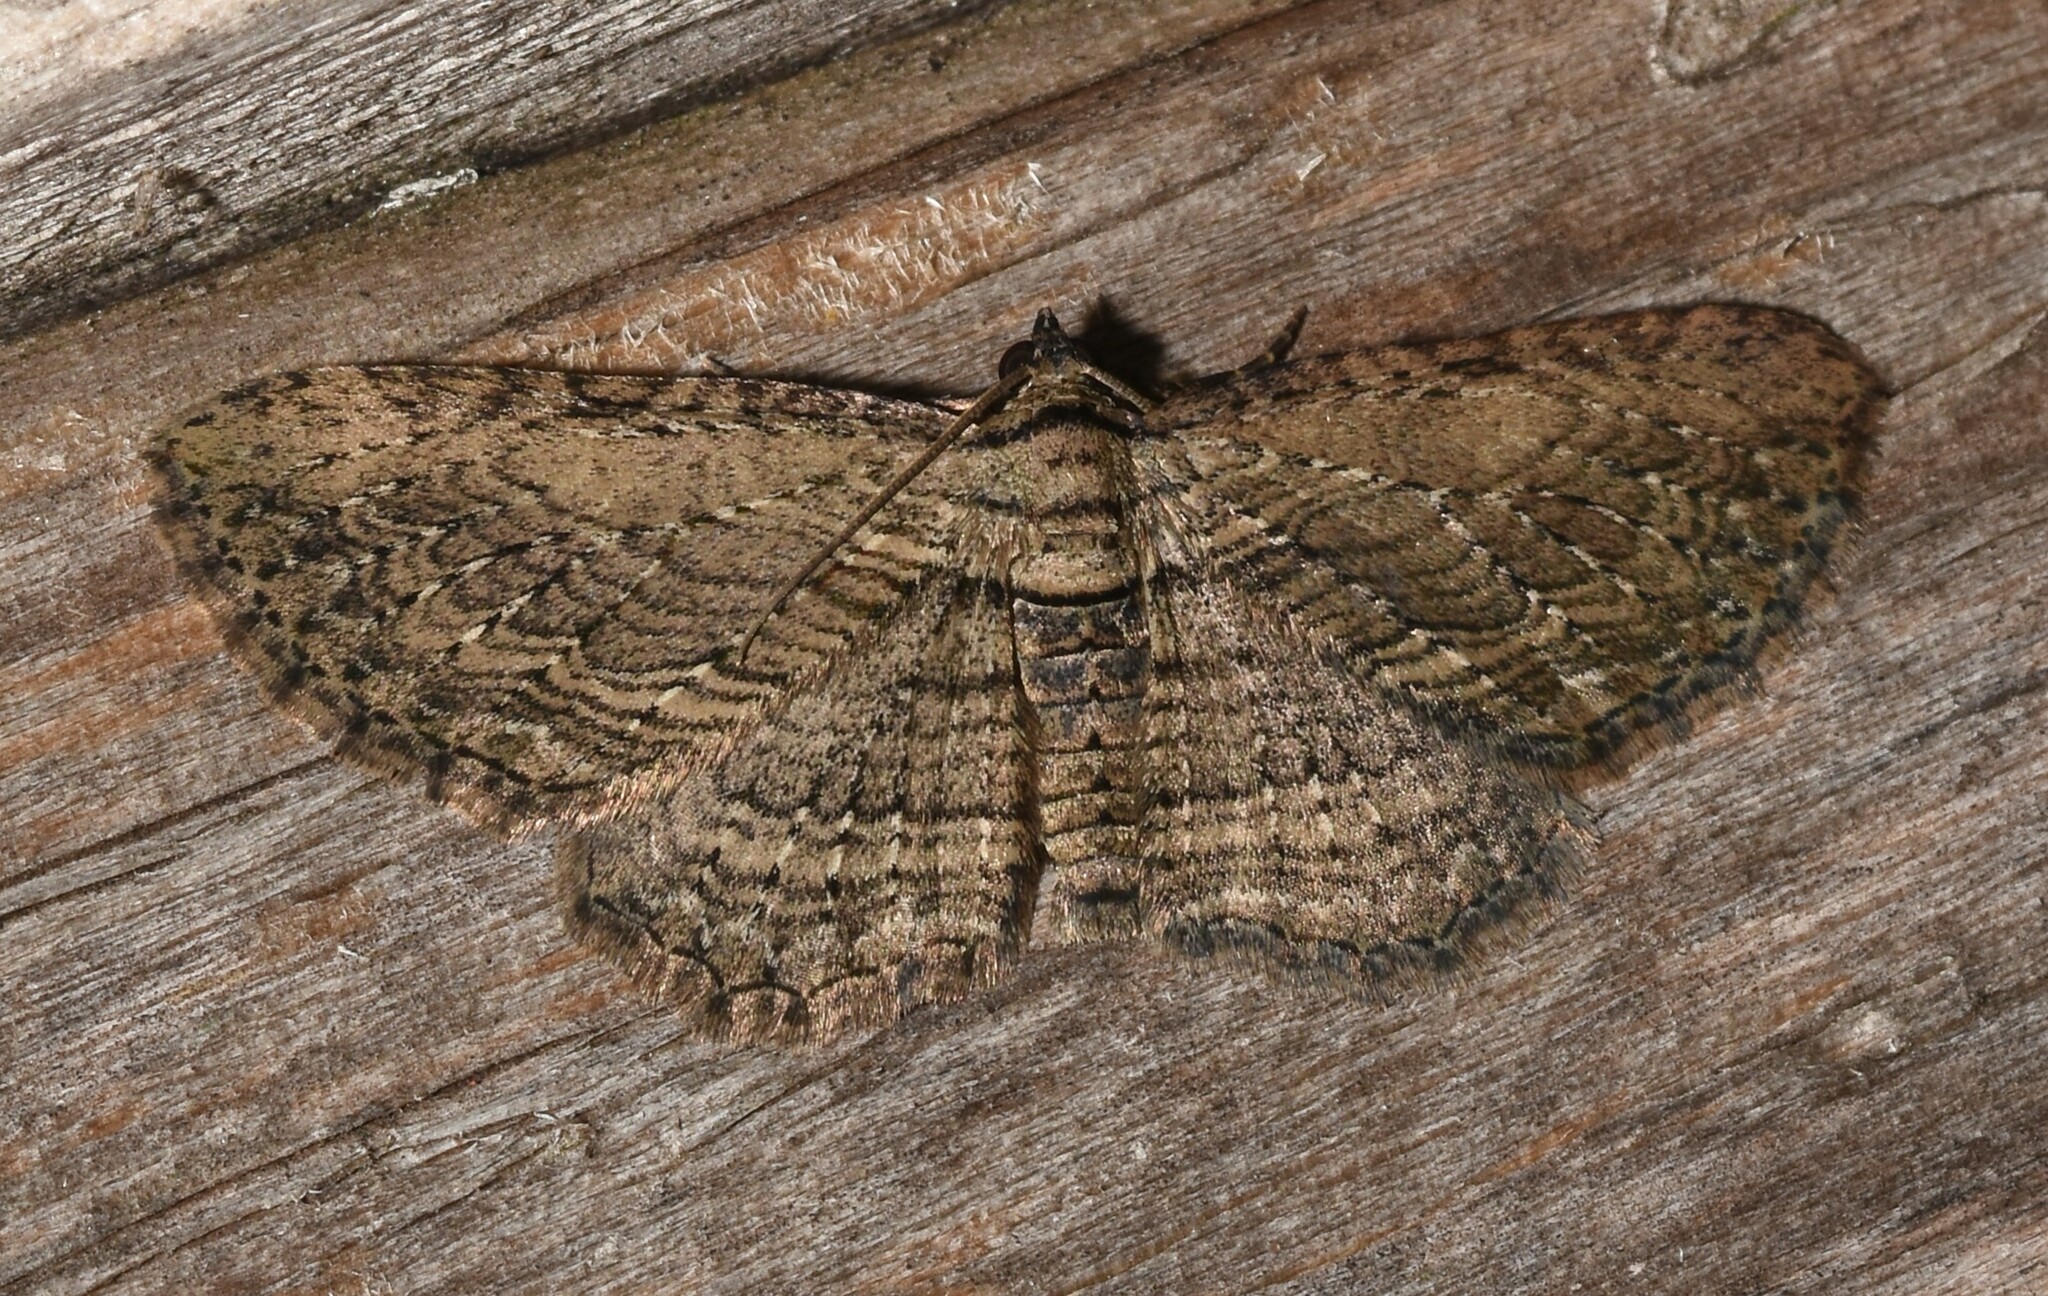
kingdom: Animalia
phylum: Arthropoda
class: Insecta
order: Lepidoptera
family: Geometridae
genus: Horisme
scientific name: Horisme intestinata
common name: Brown bark carpet
